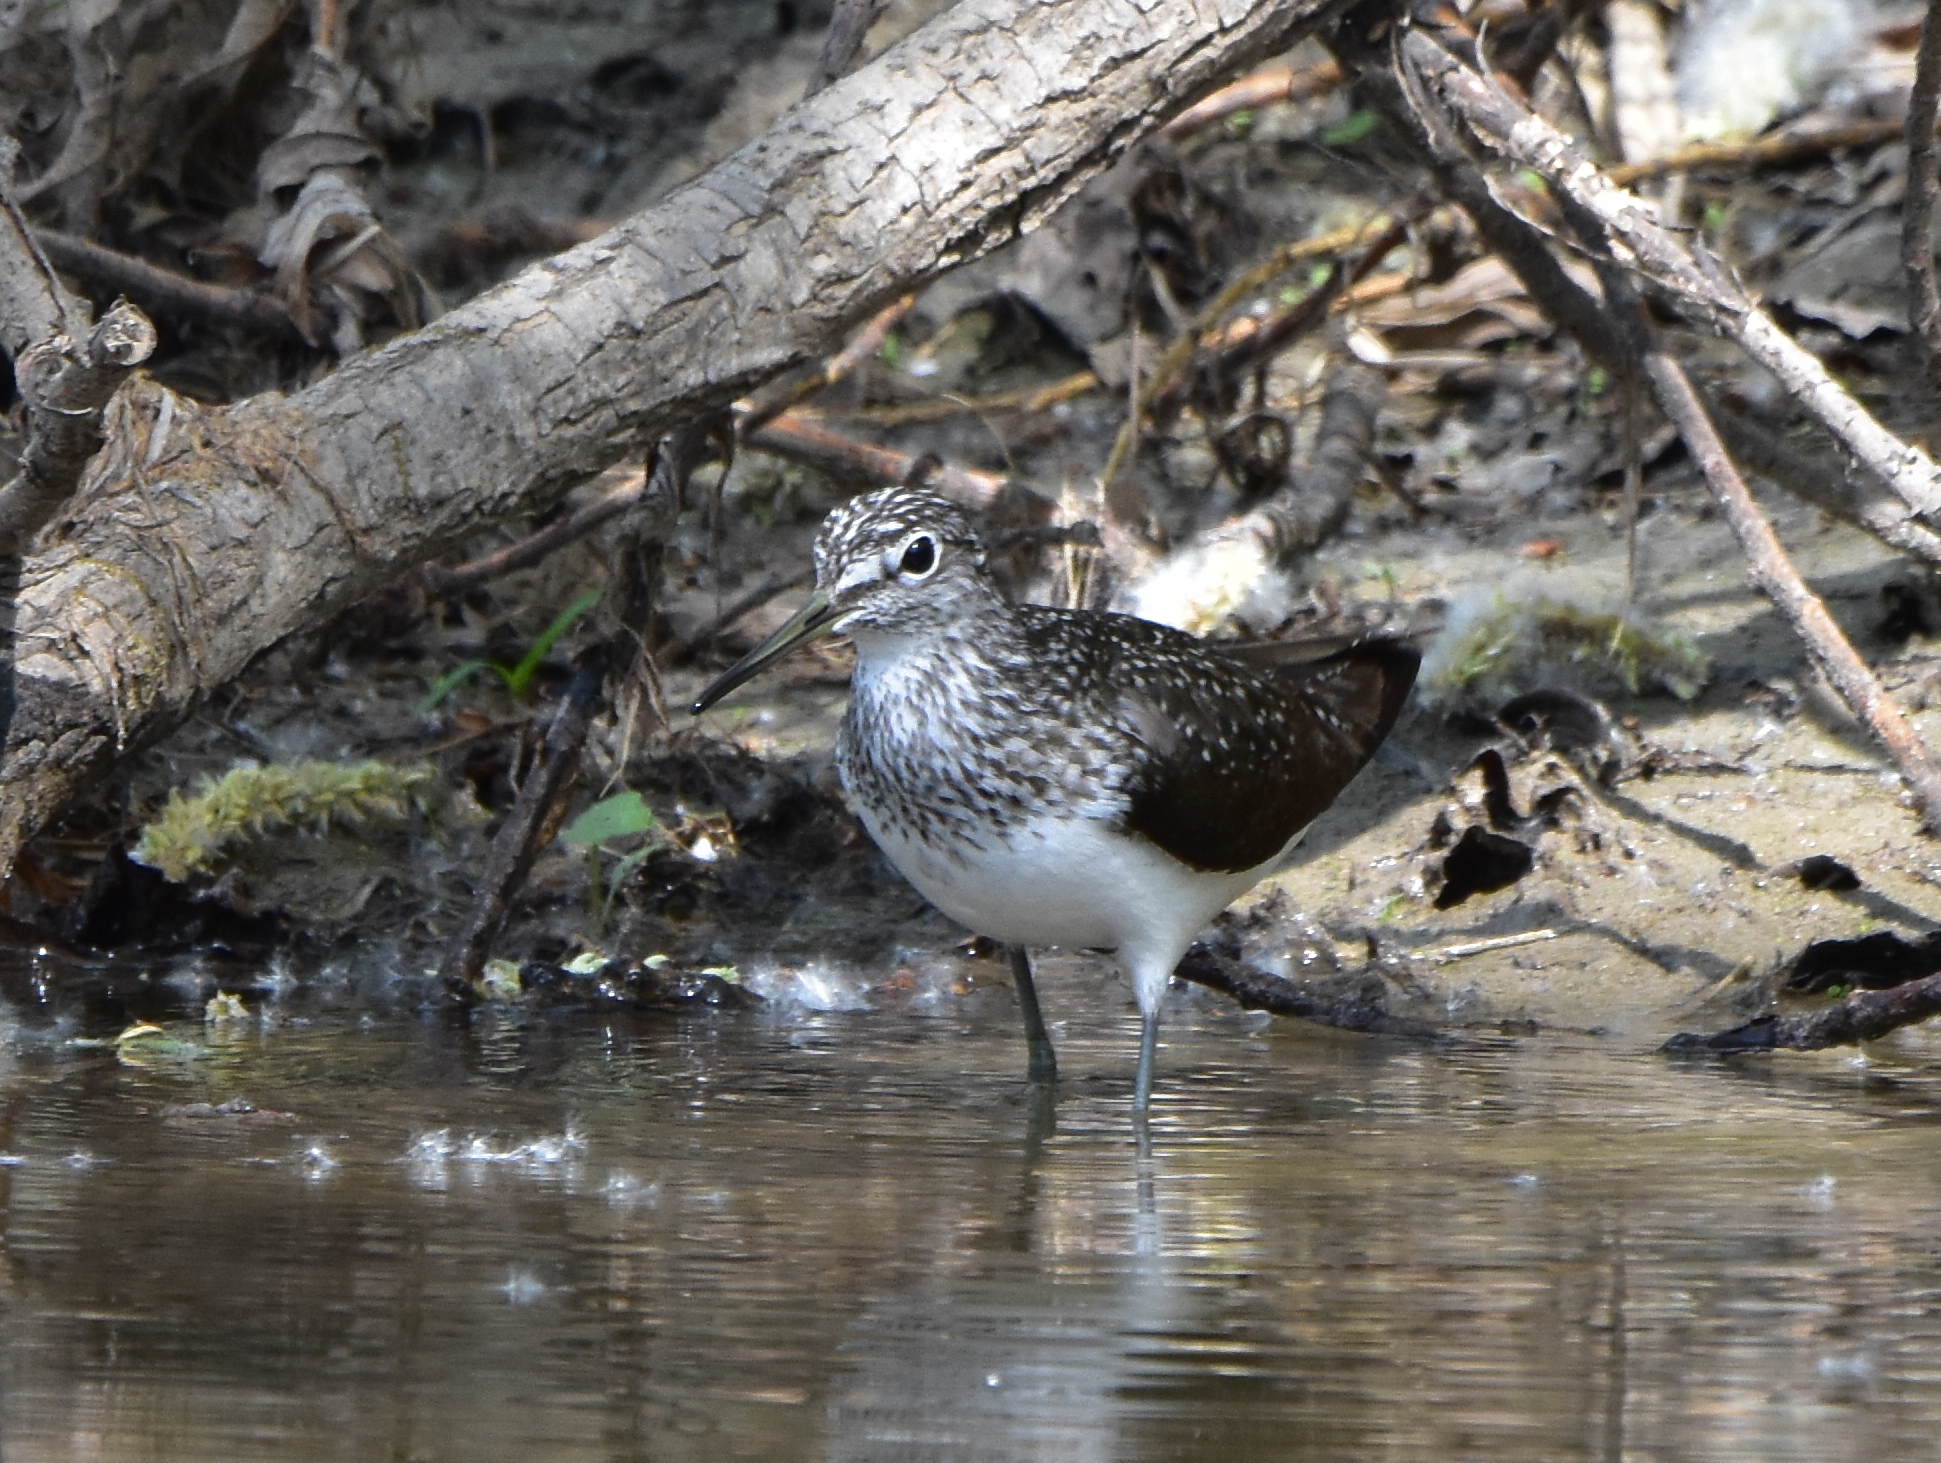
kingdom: Animalia
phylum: Chordata
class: Aves
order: Charadriiformes
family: Scolopacidae
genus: Tringa
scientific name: Tringa ochropus
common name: Green sandpiper
